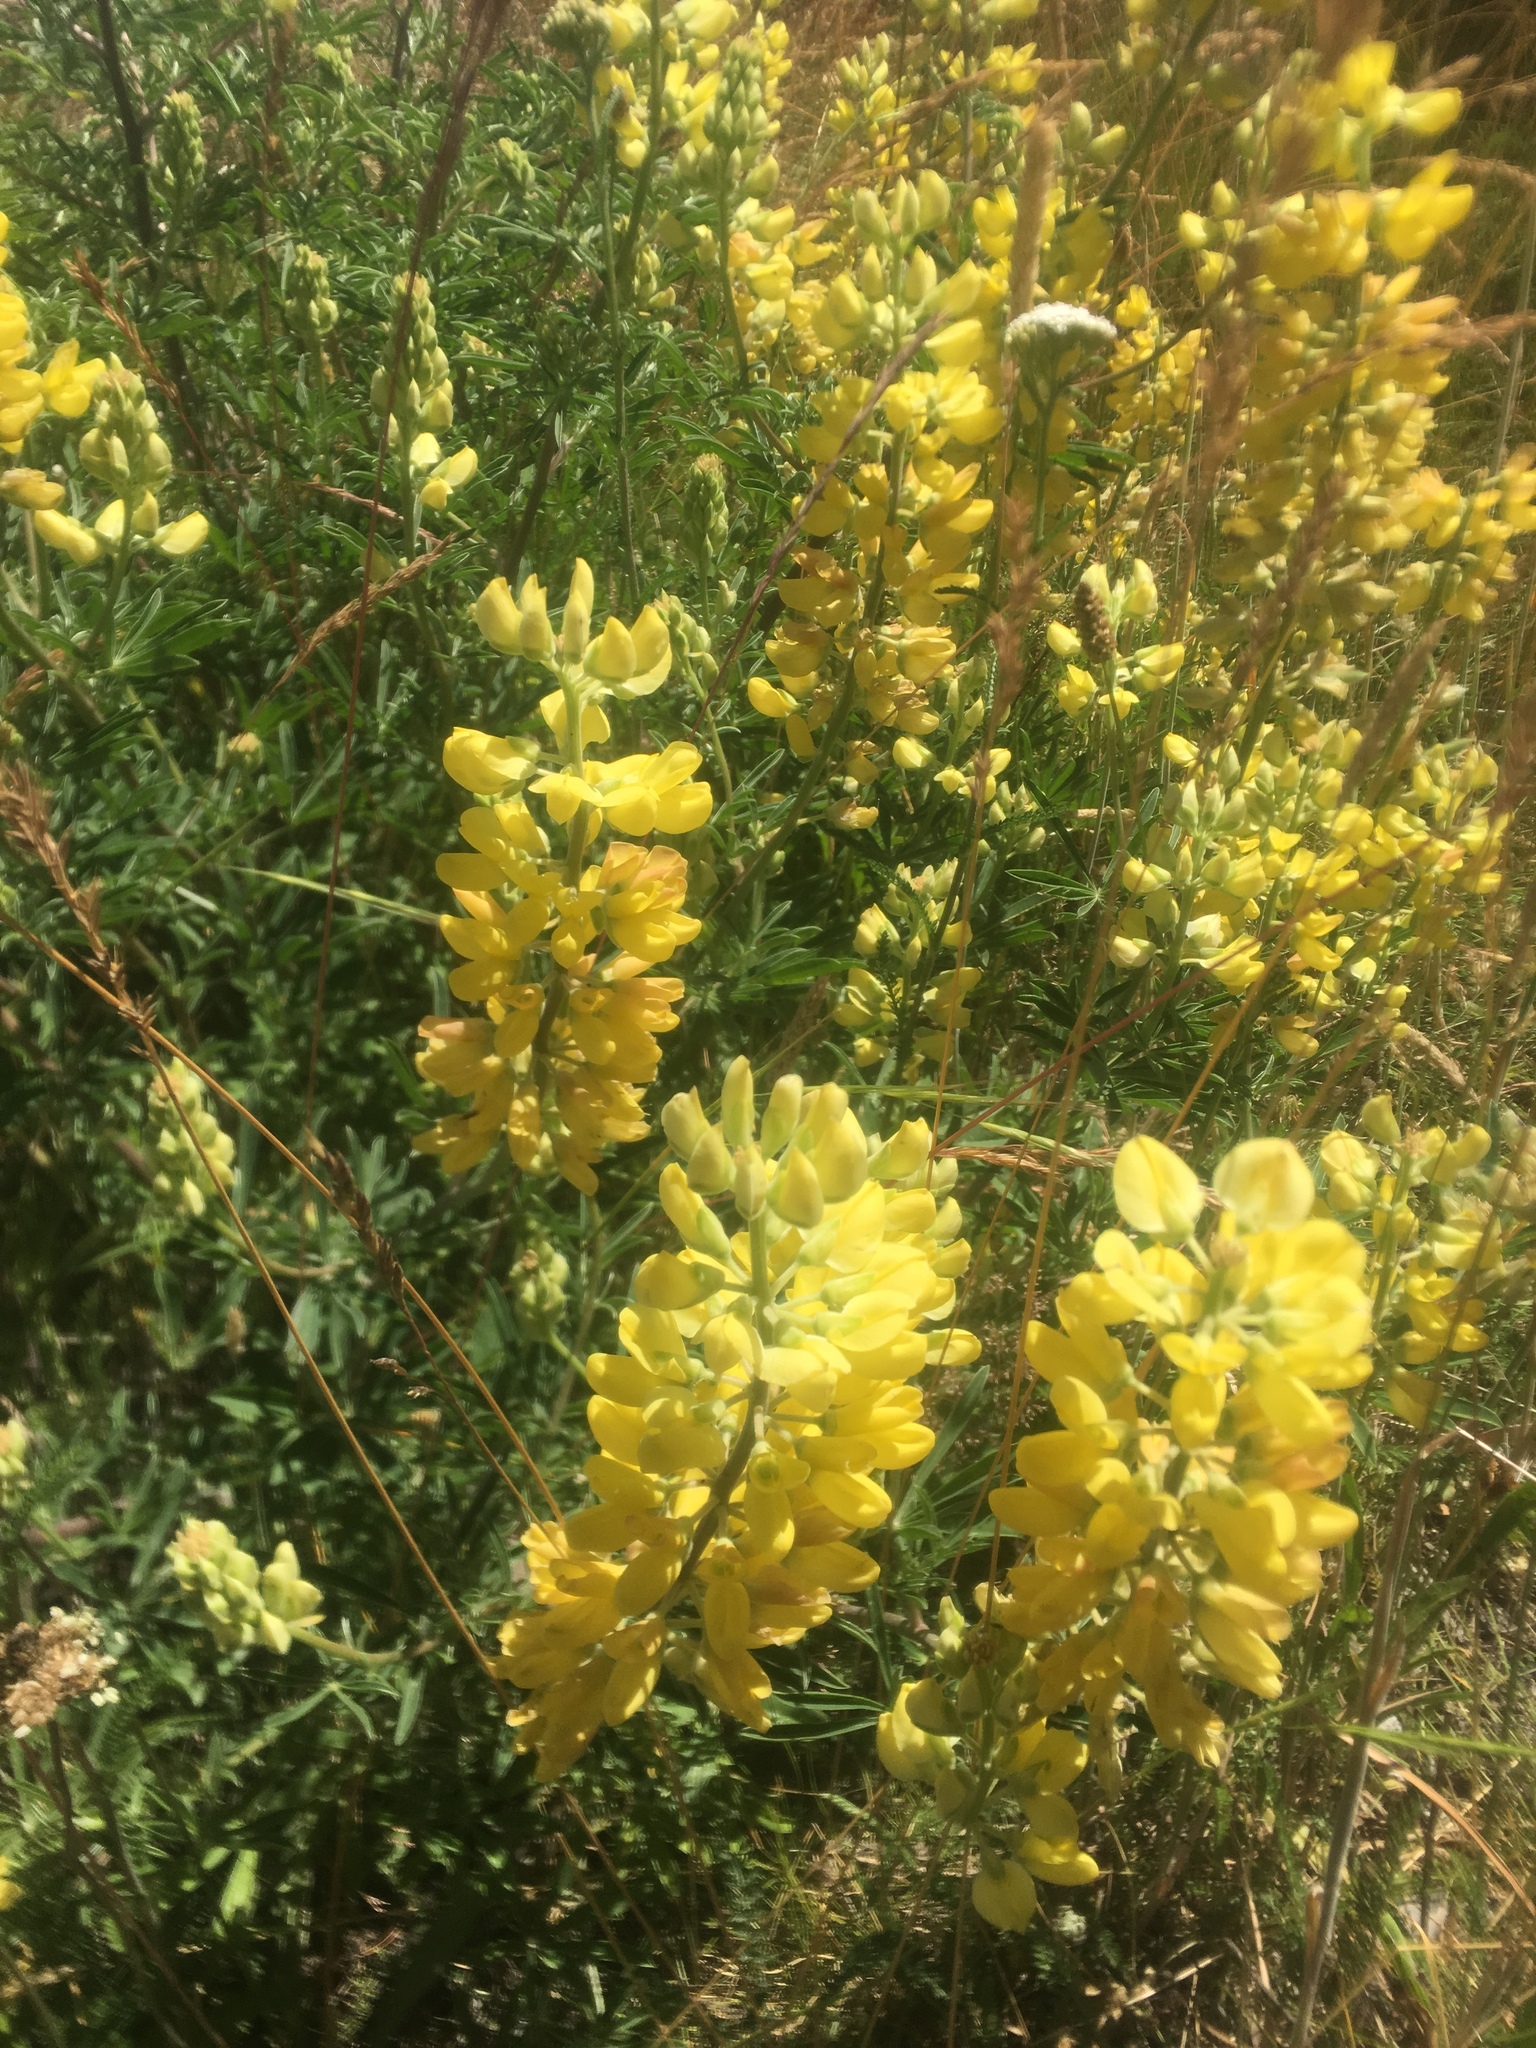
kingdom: Plantae
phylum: Tracheophyta
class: Magnoliopsida
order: Fabales
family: Fabaceae
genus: Lupinus
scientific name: Lupinus arboreus
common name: Yellow bush lupine
